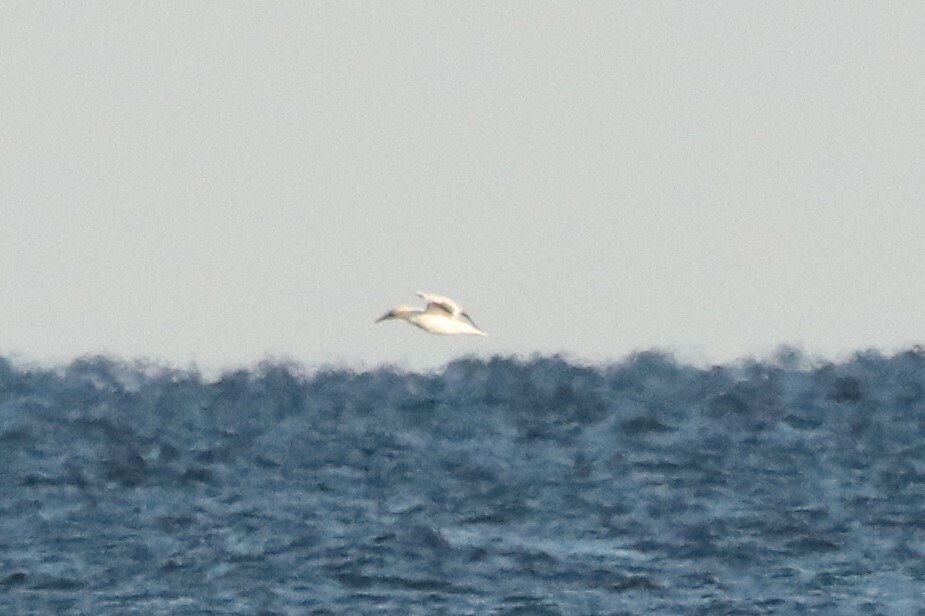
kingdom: Animalia
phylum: Chordata
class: Aves
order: Suliformes
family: Sulidae
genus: Morus
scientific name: Morus bassanus
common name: Northern gannet
